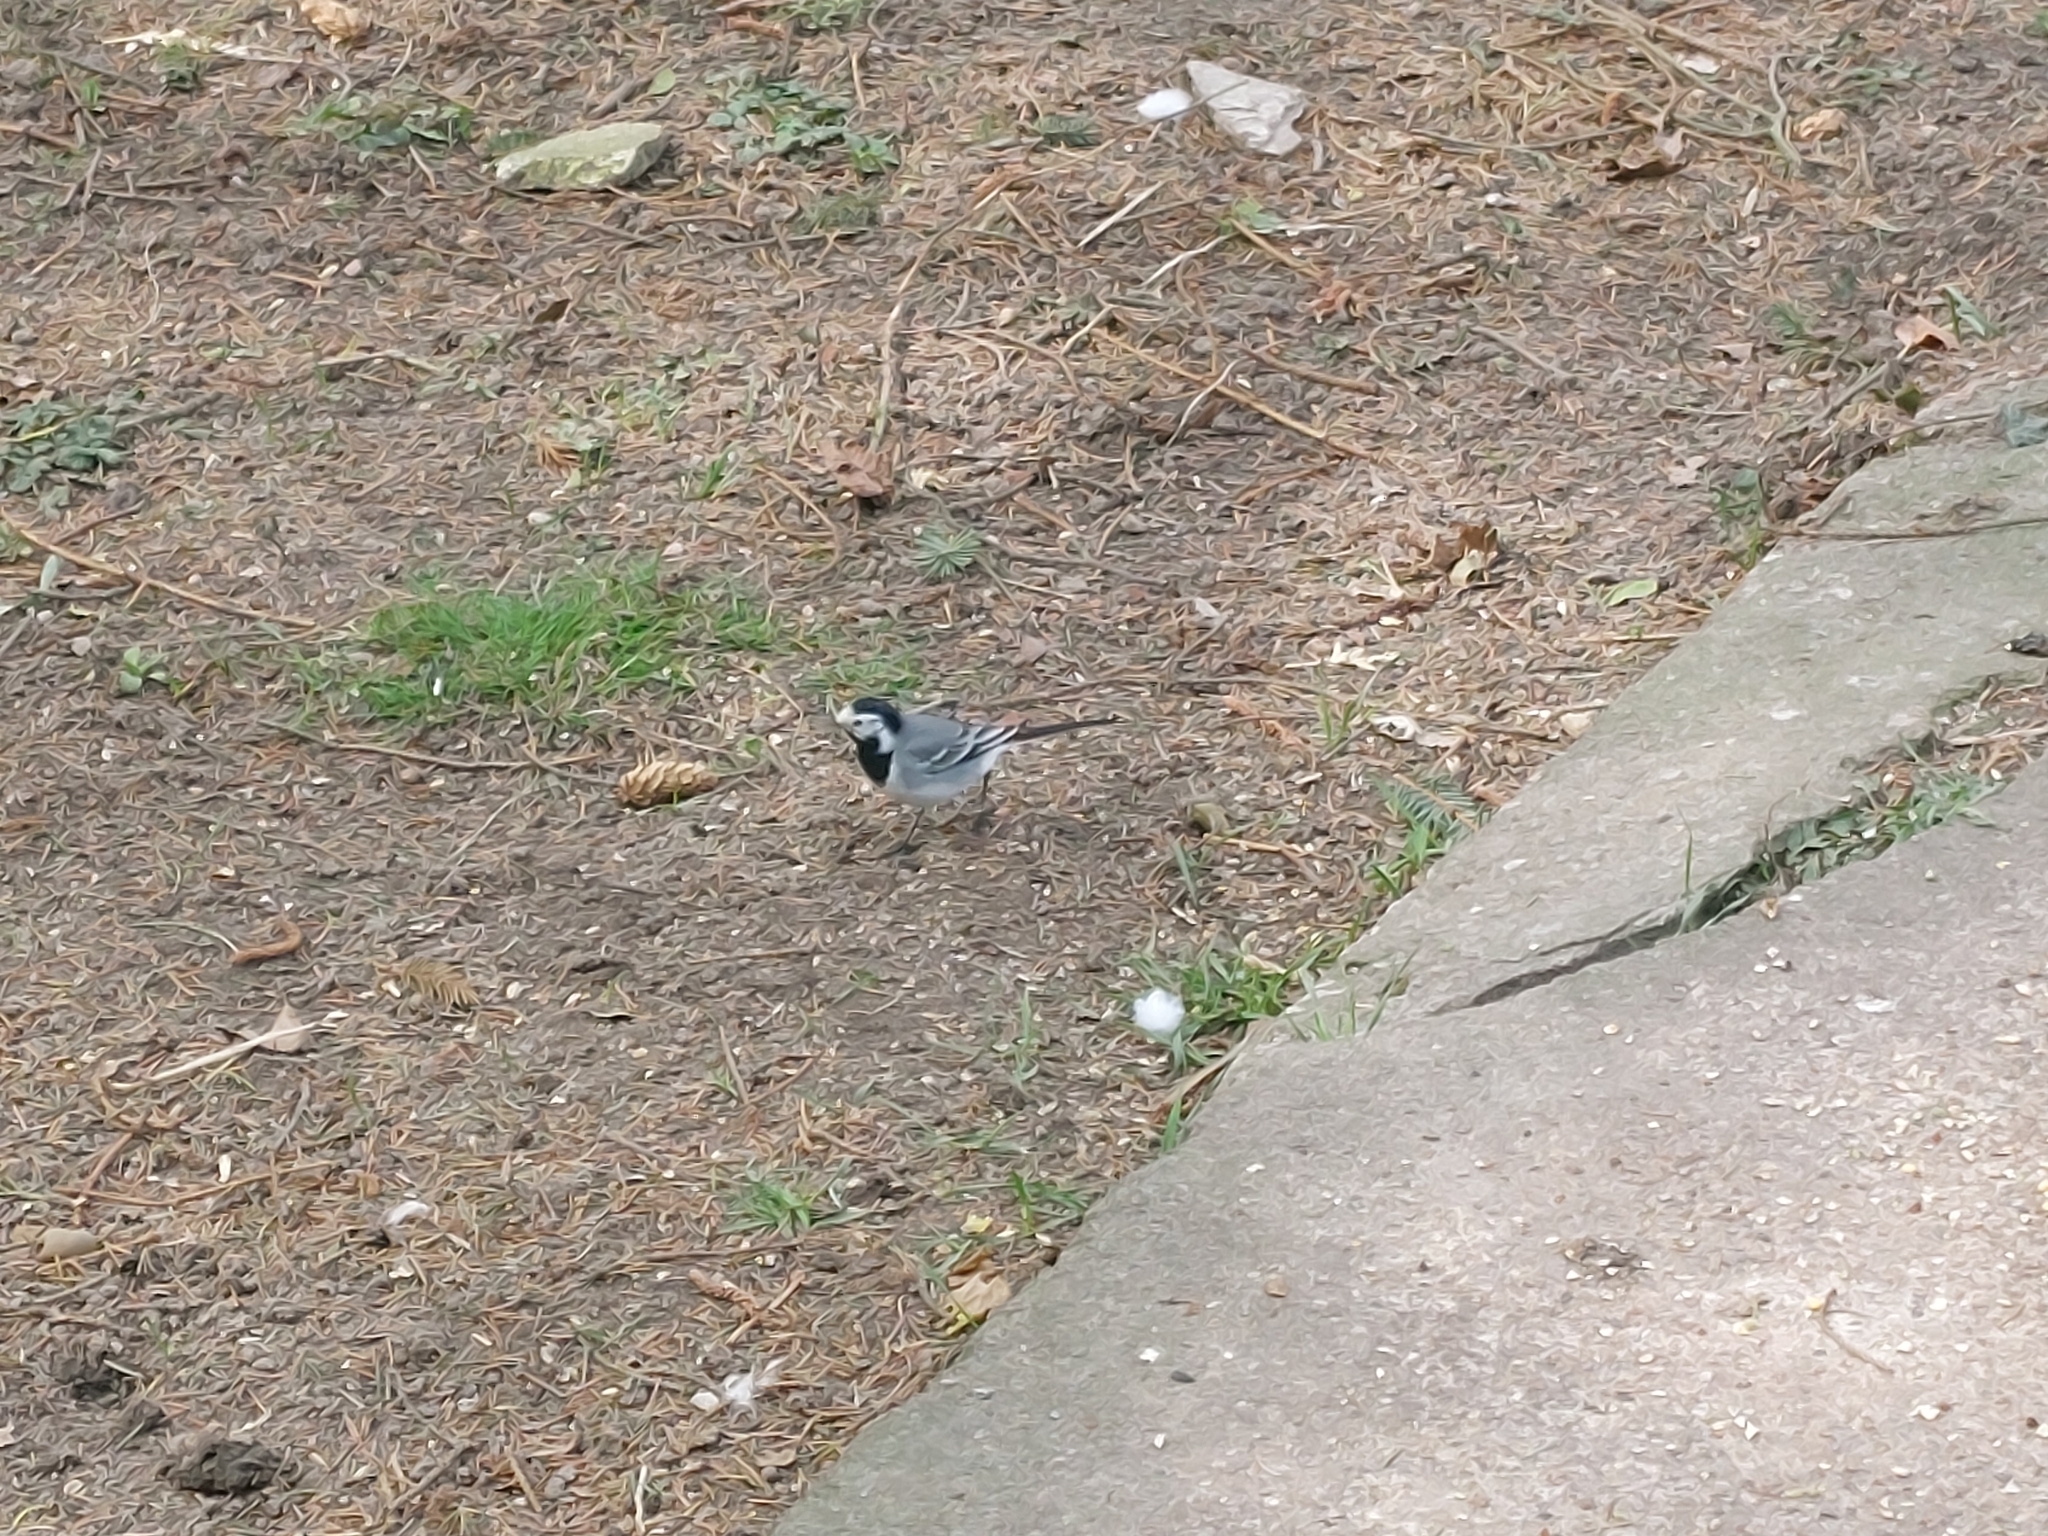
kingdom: Animalia
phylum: Chordata
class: Aves
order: Passeriformes
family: Motacillidae
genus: Motacilla
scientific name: Motacilla alba
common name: White wagtail
